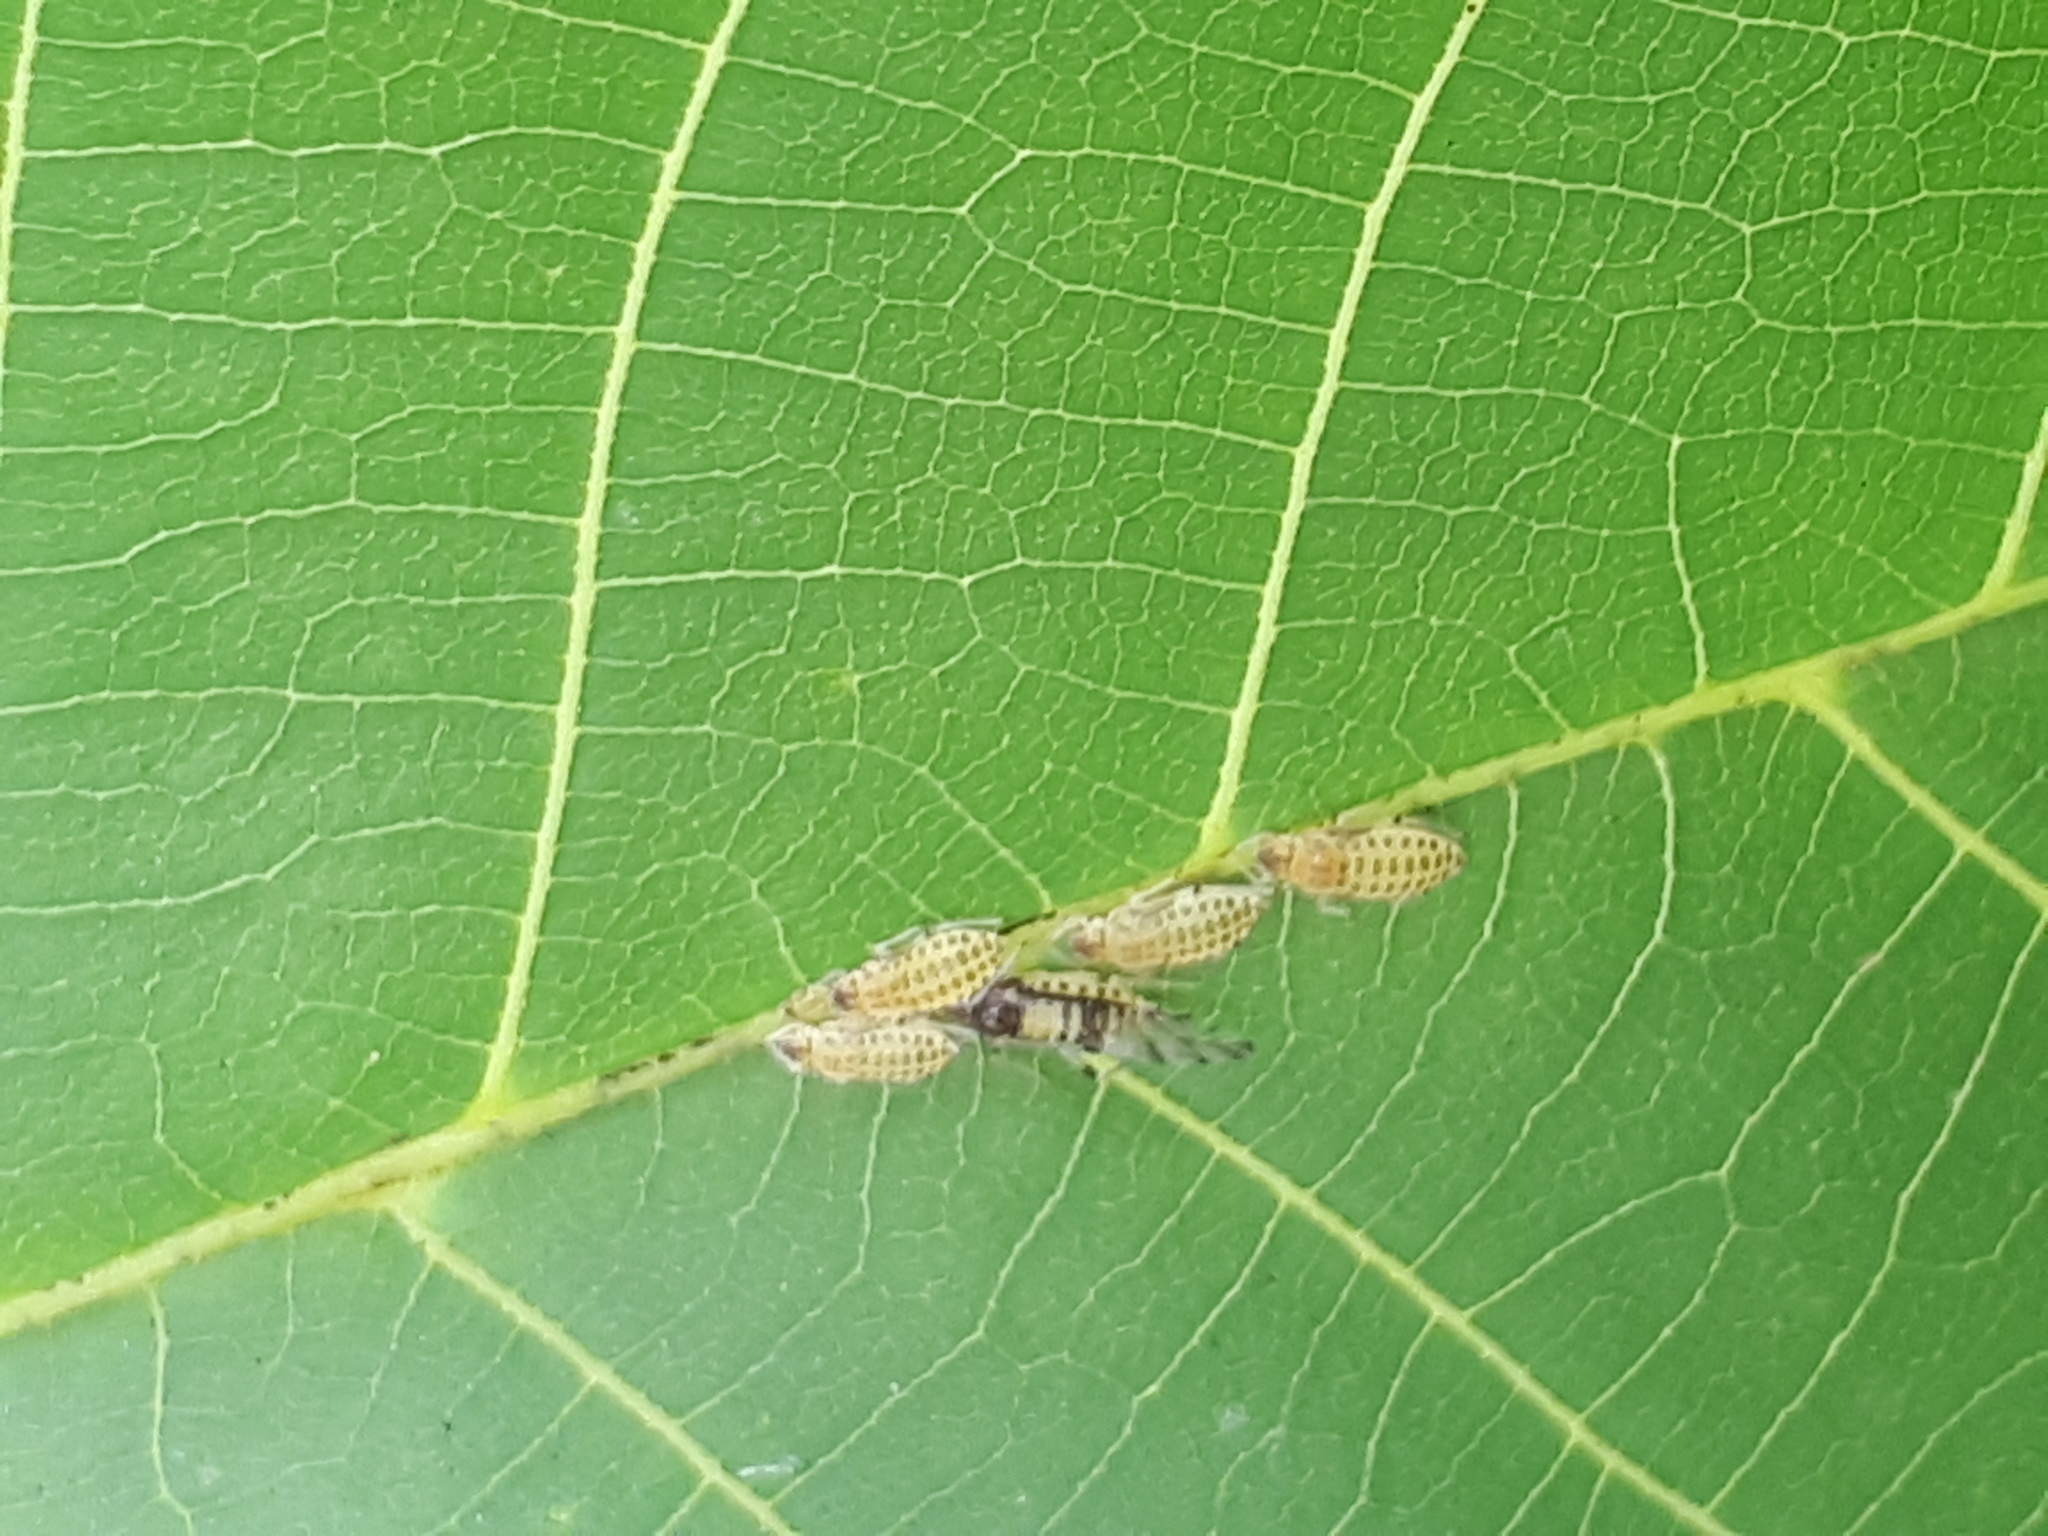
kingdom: Animalia
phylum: Arthropoda
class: Insecta
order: Hemiptera
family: Aphididae
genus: Panaphis
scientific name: Panaphis juglandis
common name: Large walnut aphid
